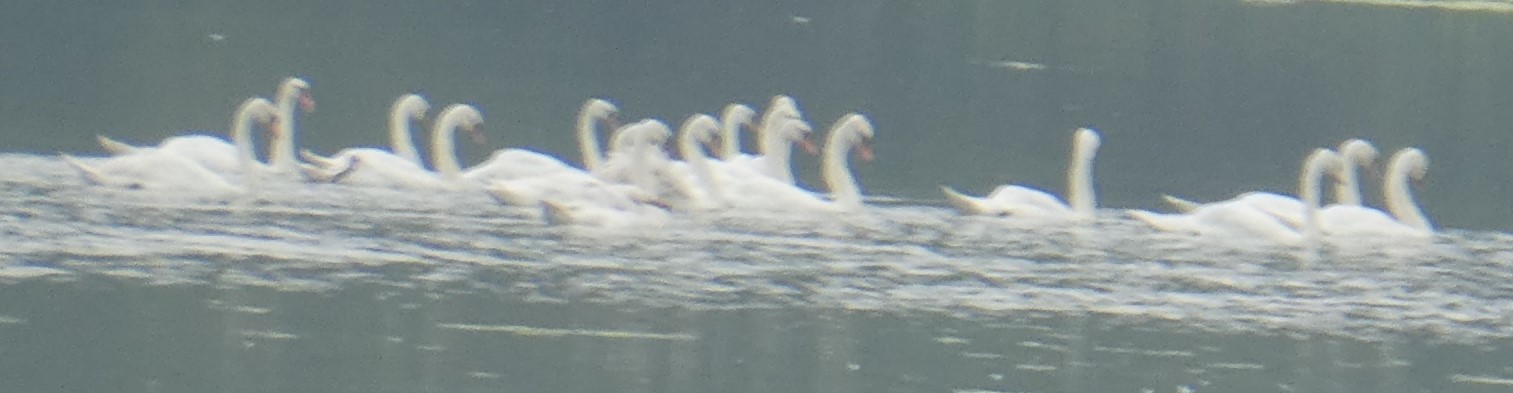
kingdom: Animalia
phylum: Chordata
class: Aves
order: Anseriformes
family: Anatidae
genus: Cygnus
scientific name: Cygnus olor
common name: Mute swan
